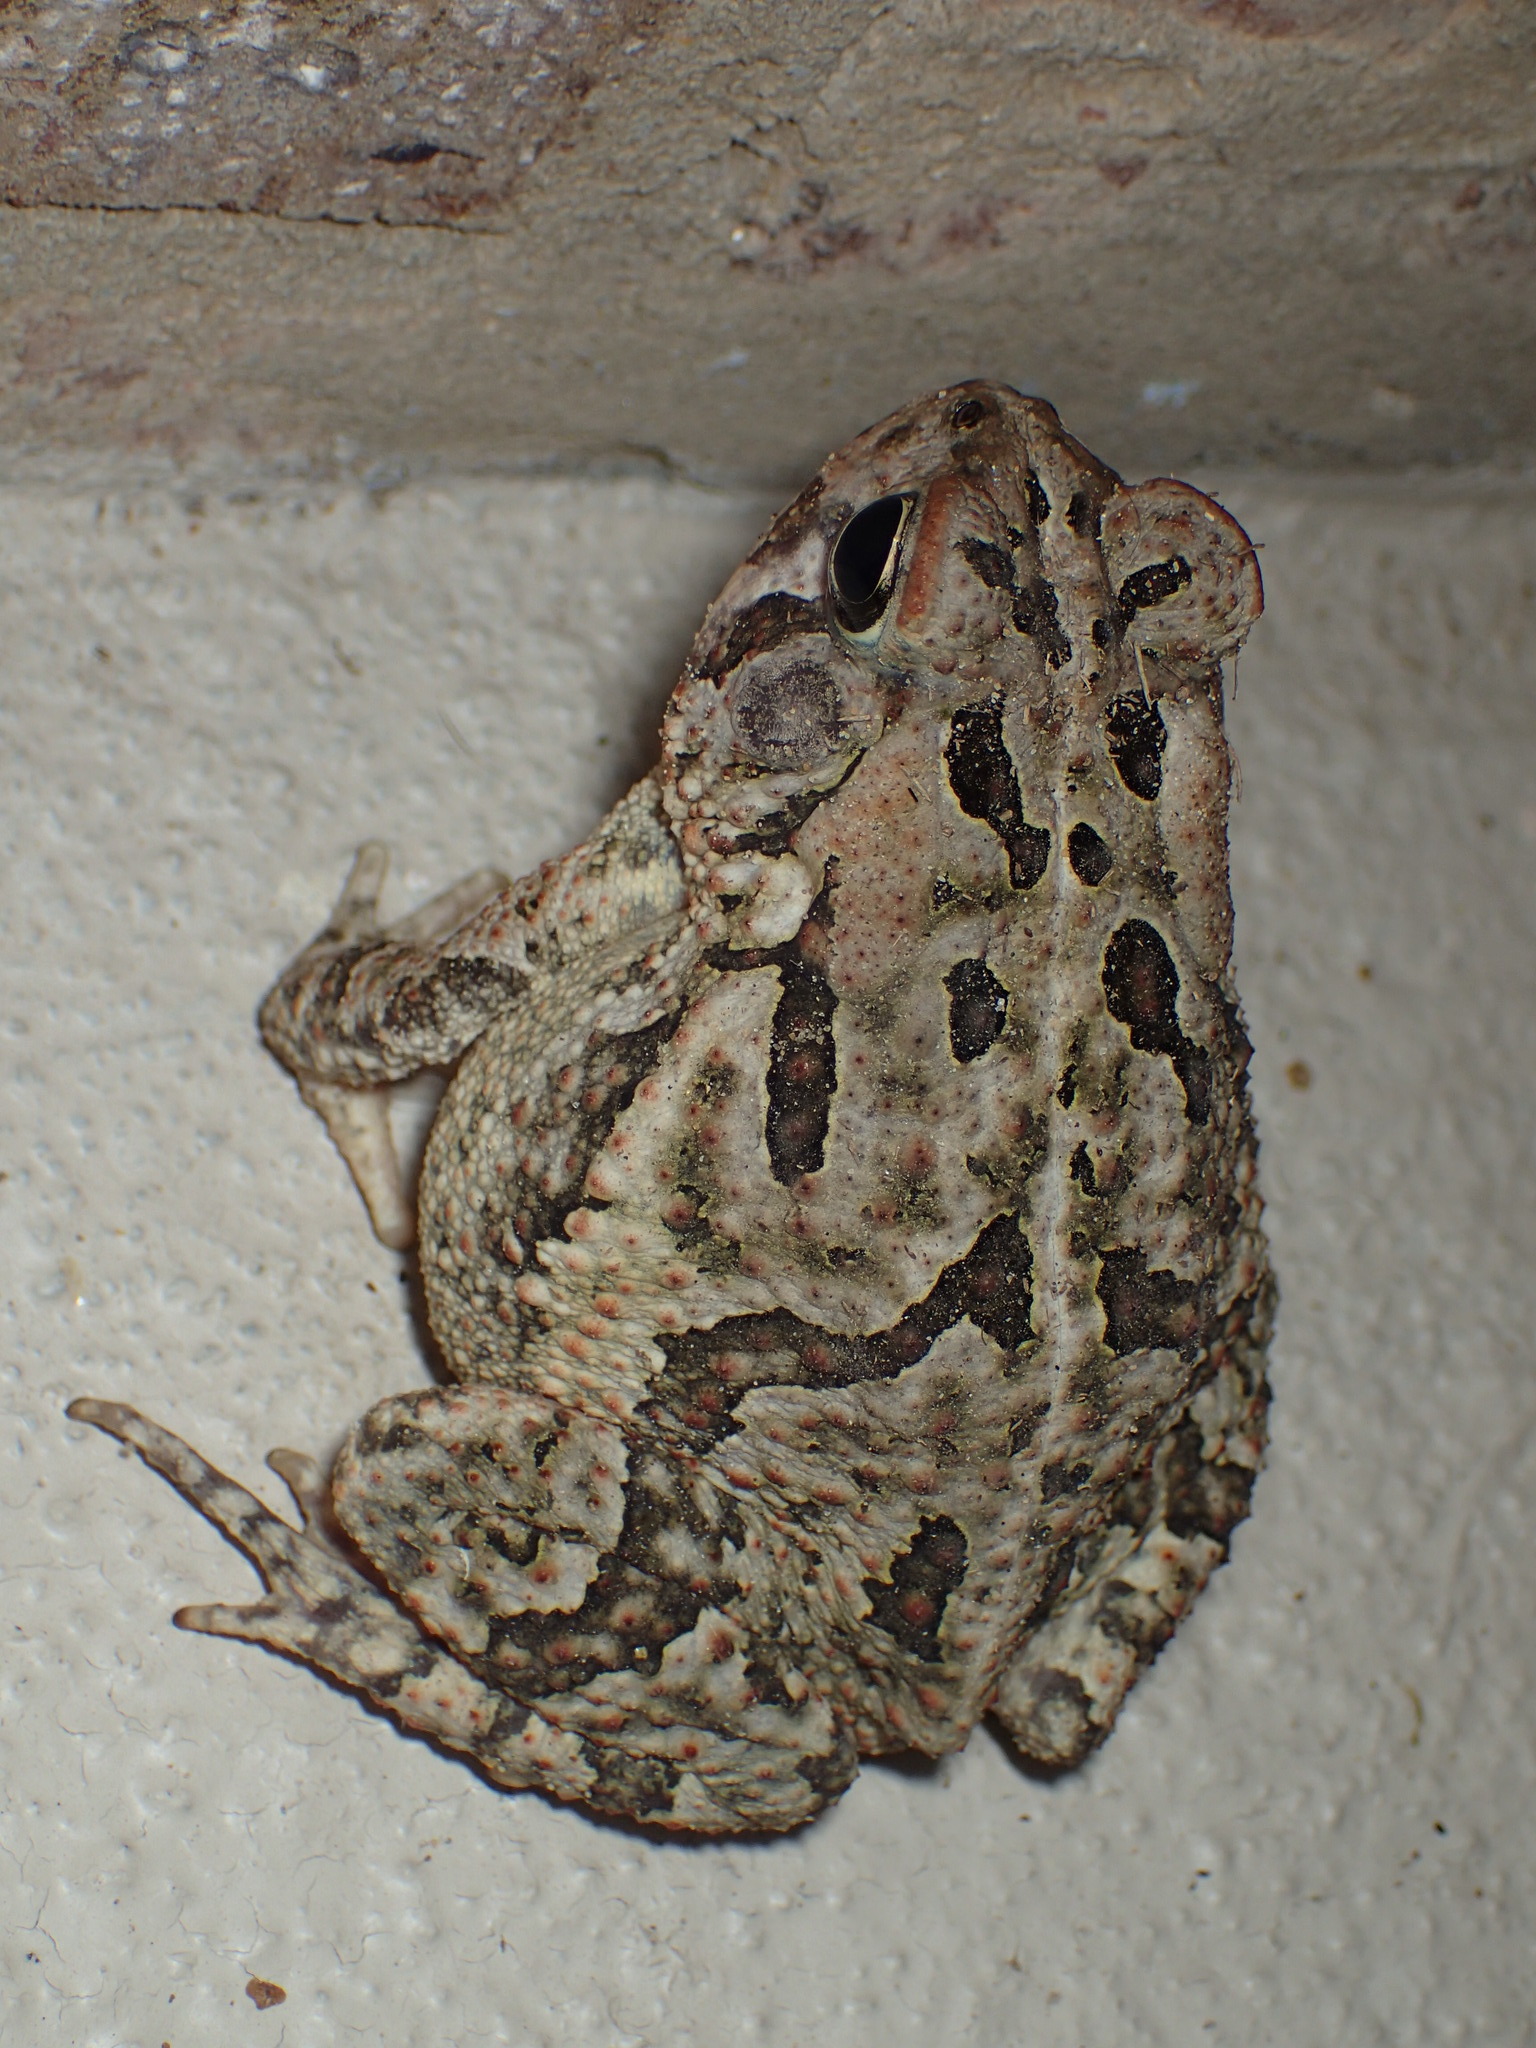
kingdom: Animalia
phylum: Chordata
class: Amphibia
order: Anura
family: Bufonidae
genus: Anaxyrus
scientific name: Anaxyrus fowleri
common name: Fowler's toad
